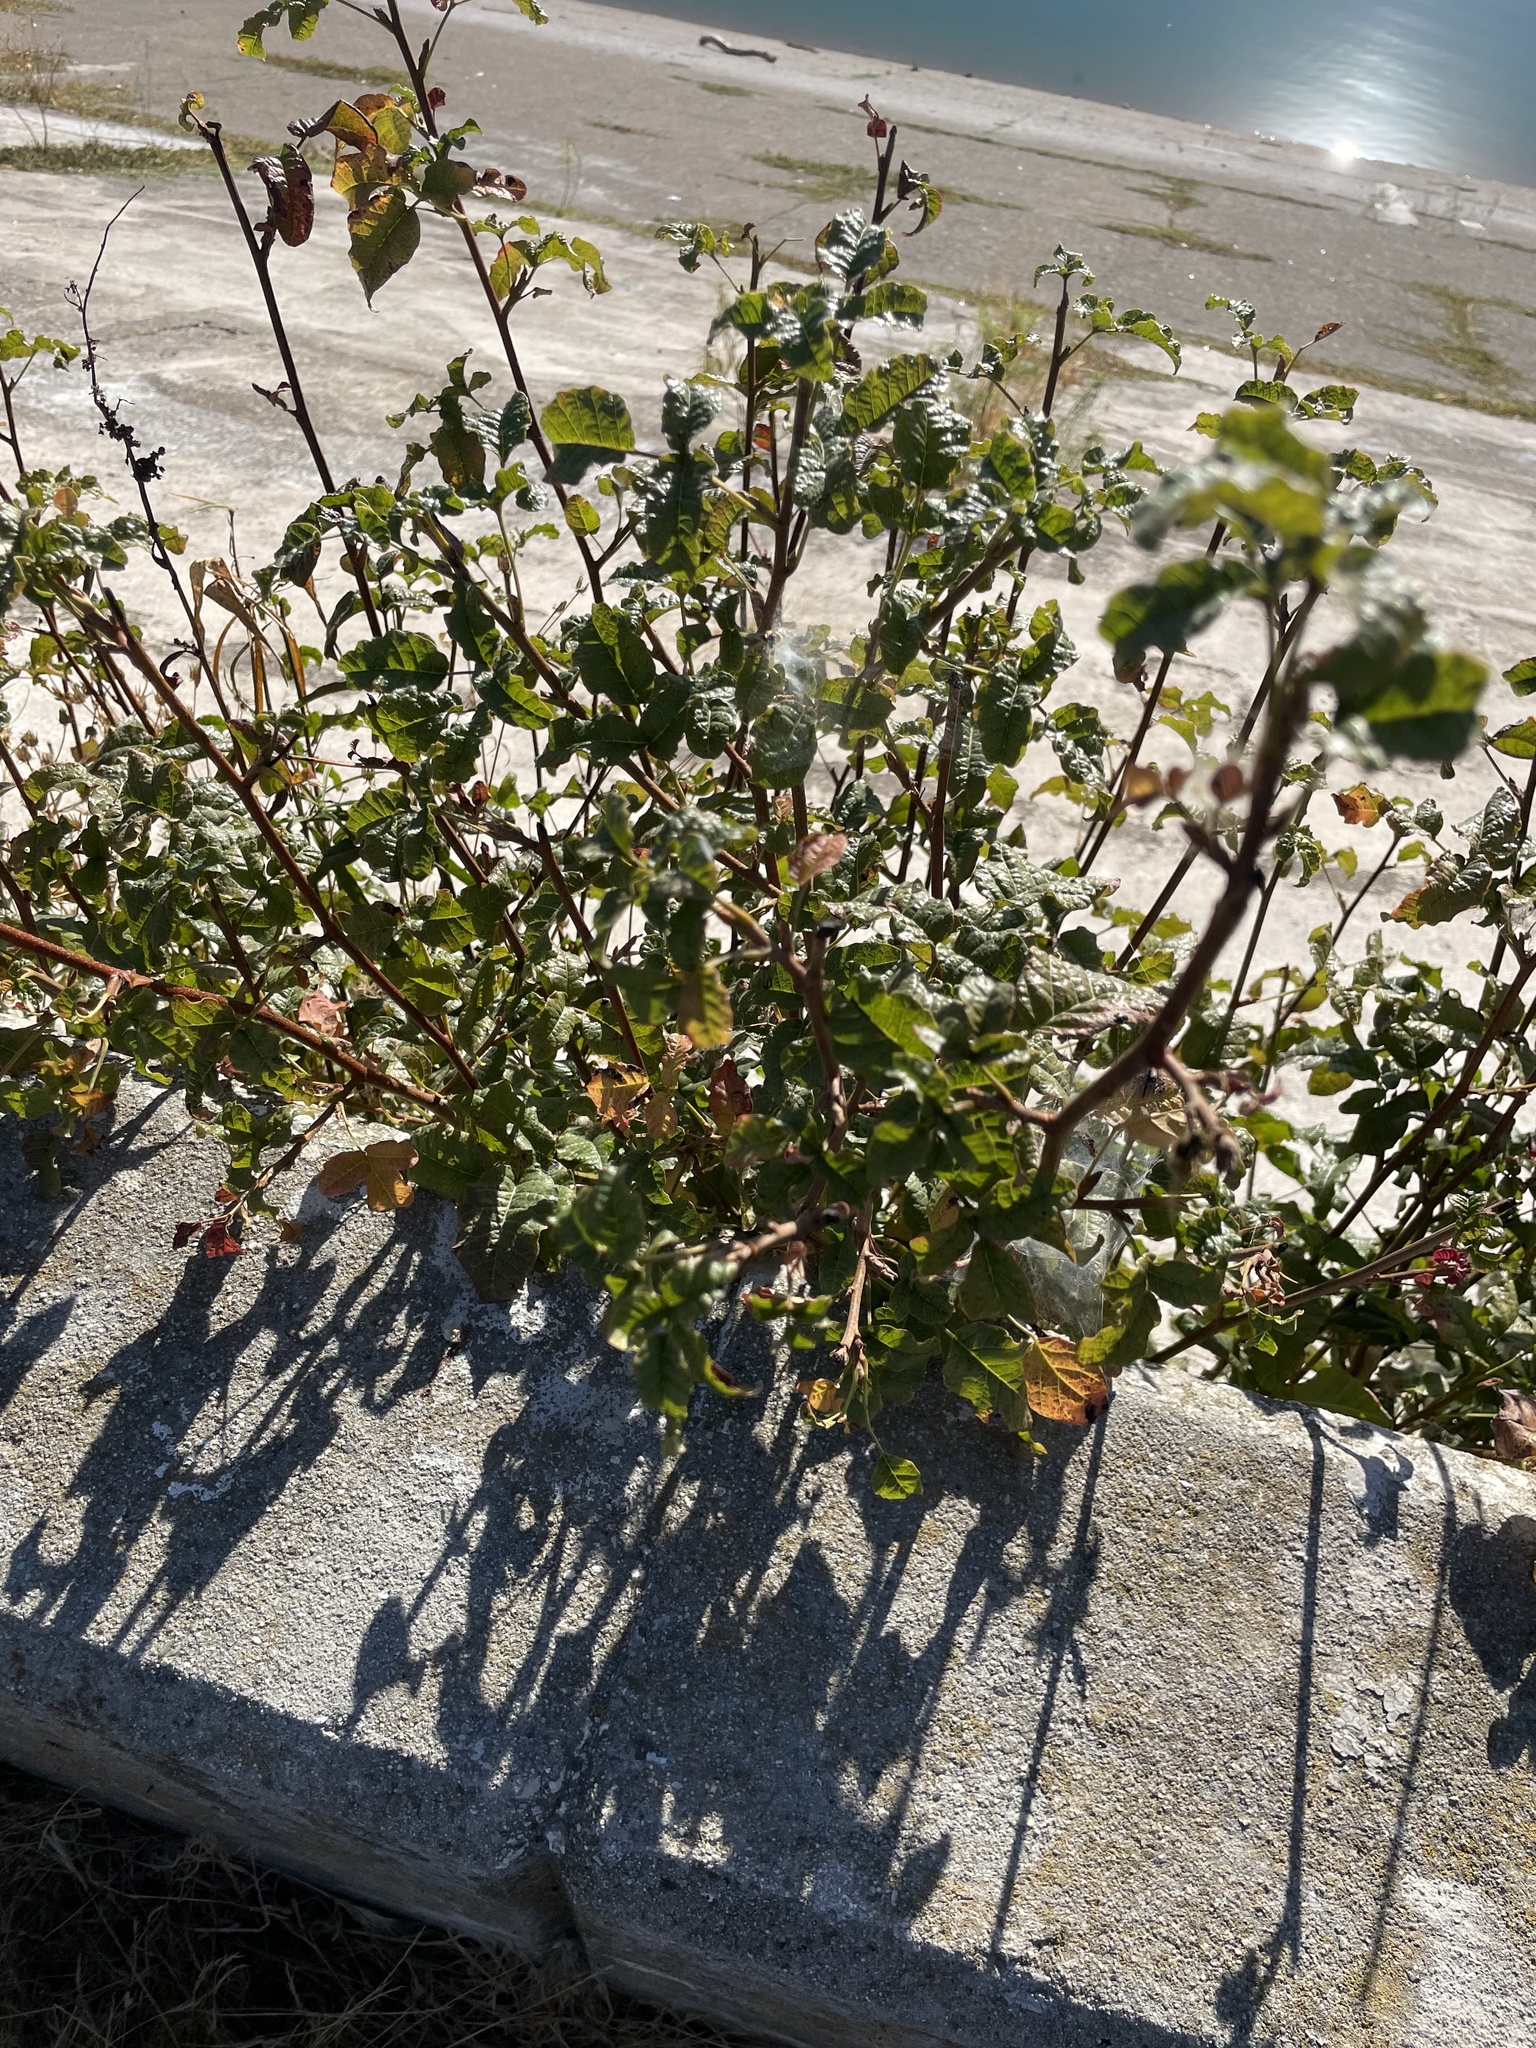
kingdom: Plantae
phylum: Tracheophyta
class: Magnoliopsida
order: Sapindales
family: Anacardiaceae
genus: Toxicodendron
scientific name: Toxicodendron diversilobum
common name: Pacific poison-oak
